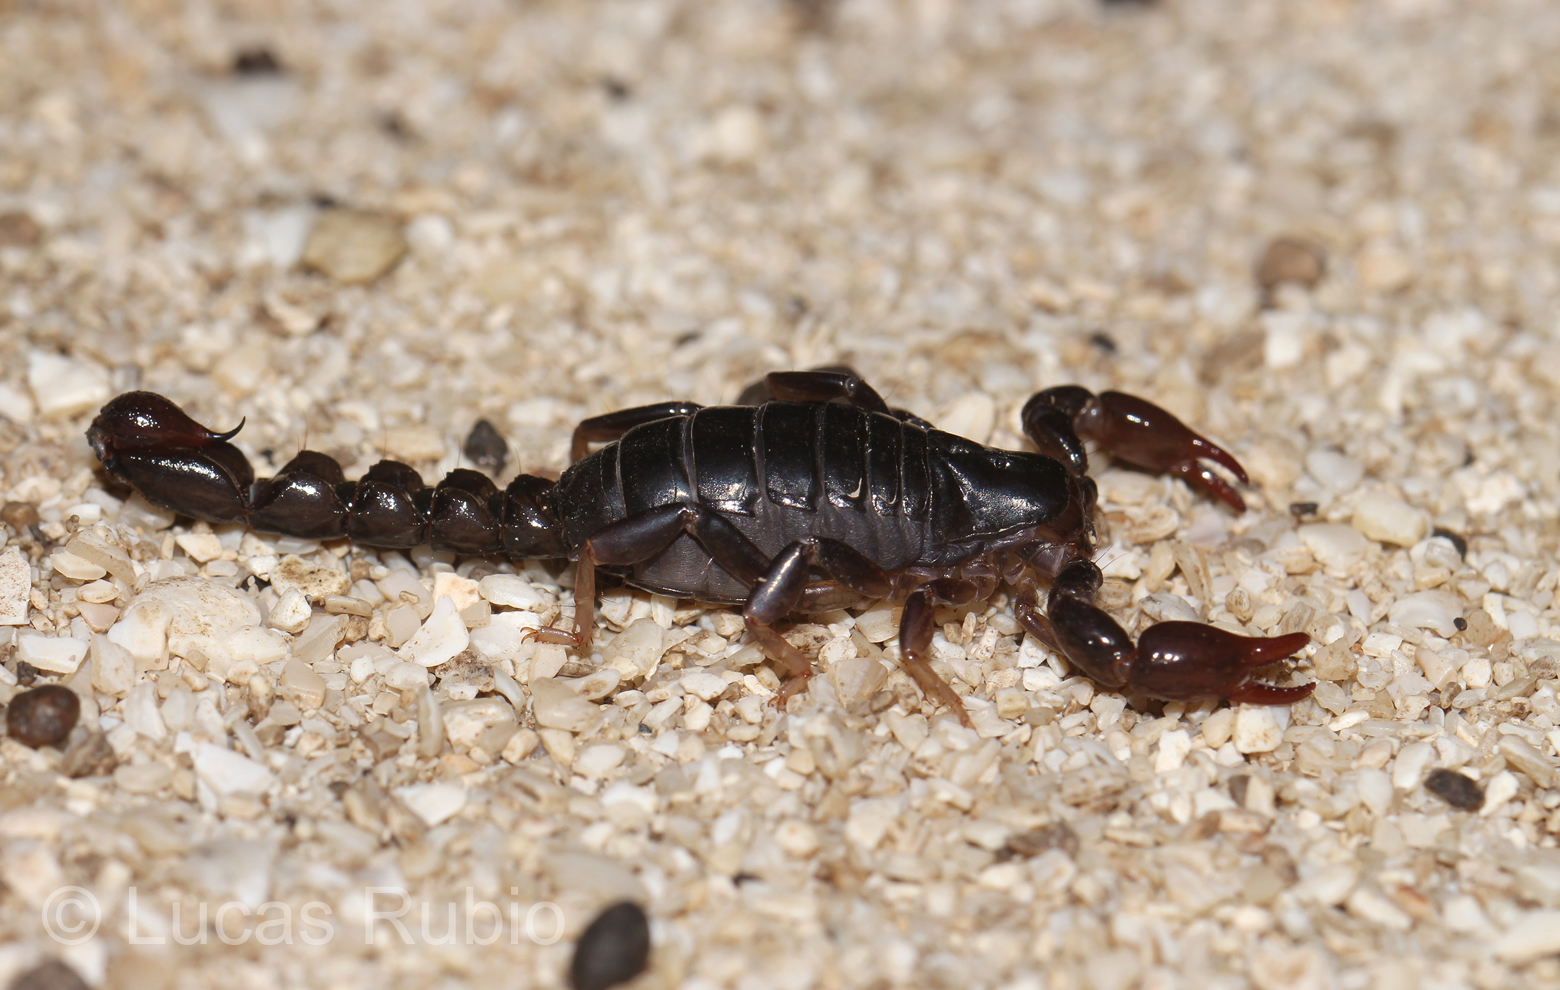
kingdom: Animalia
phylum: Arthropoda
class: Arachnida
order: Scorpiones
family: Bothriuridae
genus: Bothriurus
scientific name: Bothriurus bonariensis
